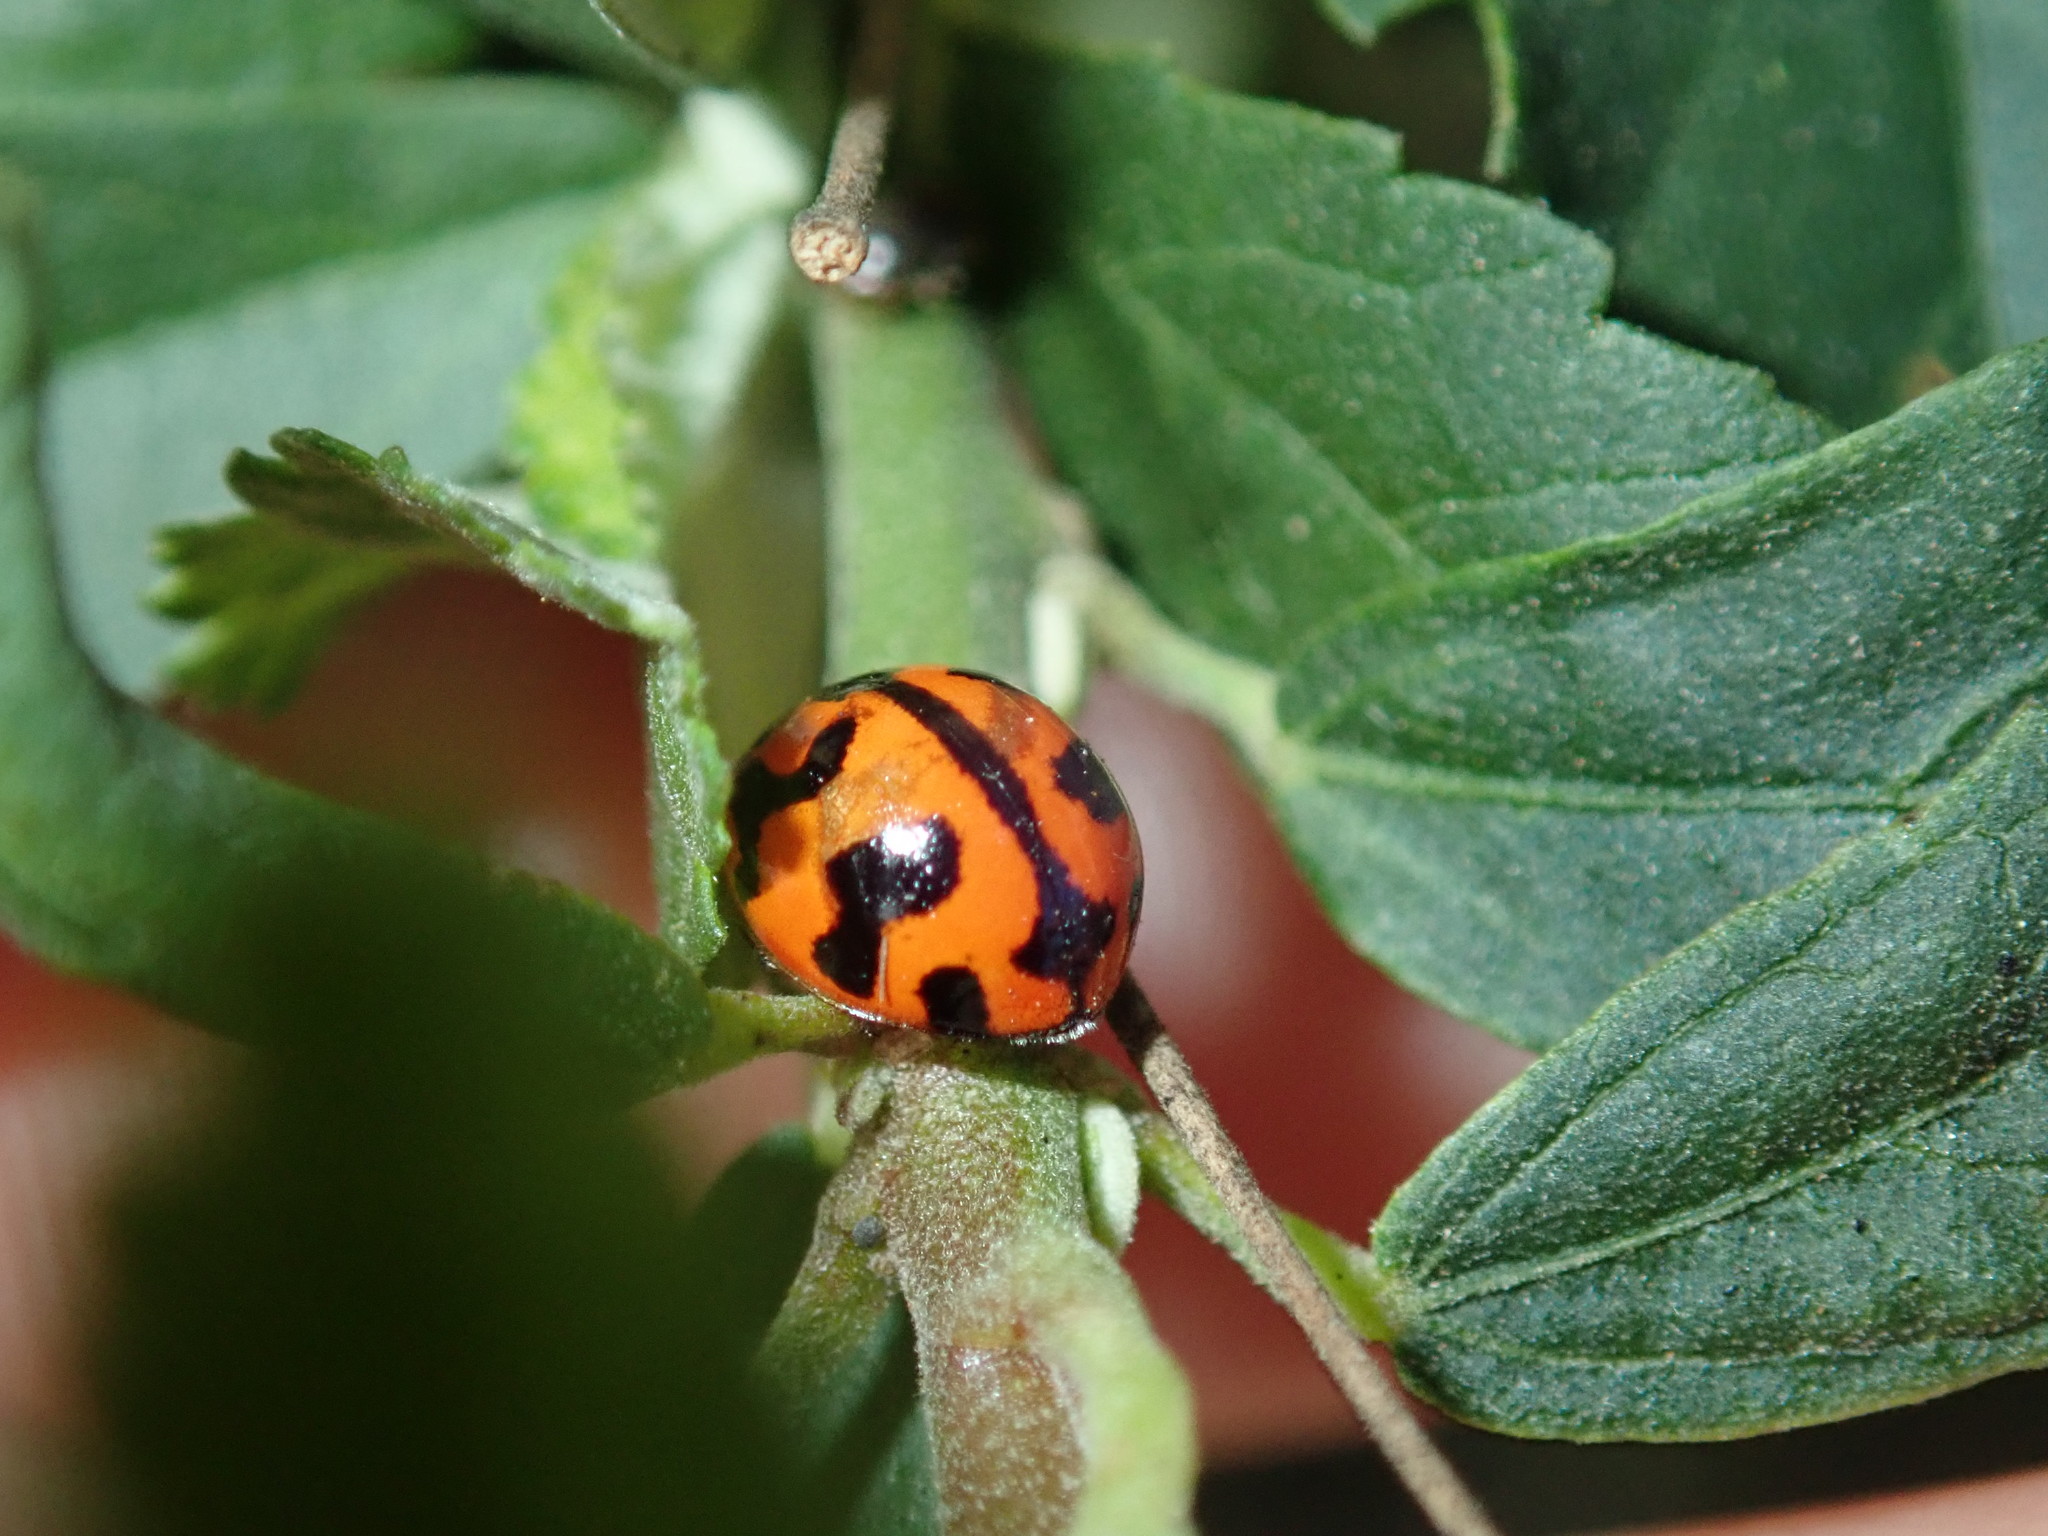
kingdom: Animalia
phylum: Arthropoda
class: Insecta
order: Coleoptera
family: Coccinellidae
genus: Coccinella
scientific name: Coccinella transversalis
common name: Transverse lady beetle
